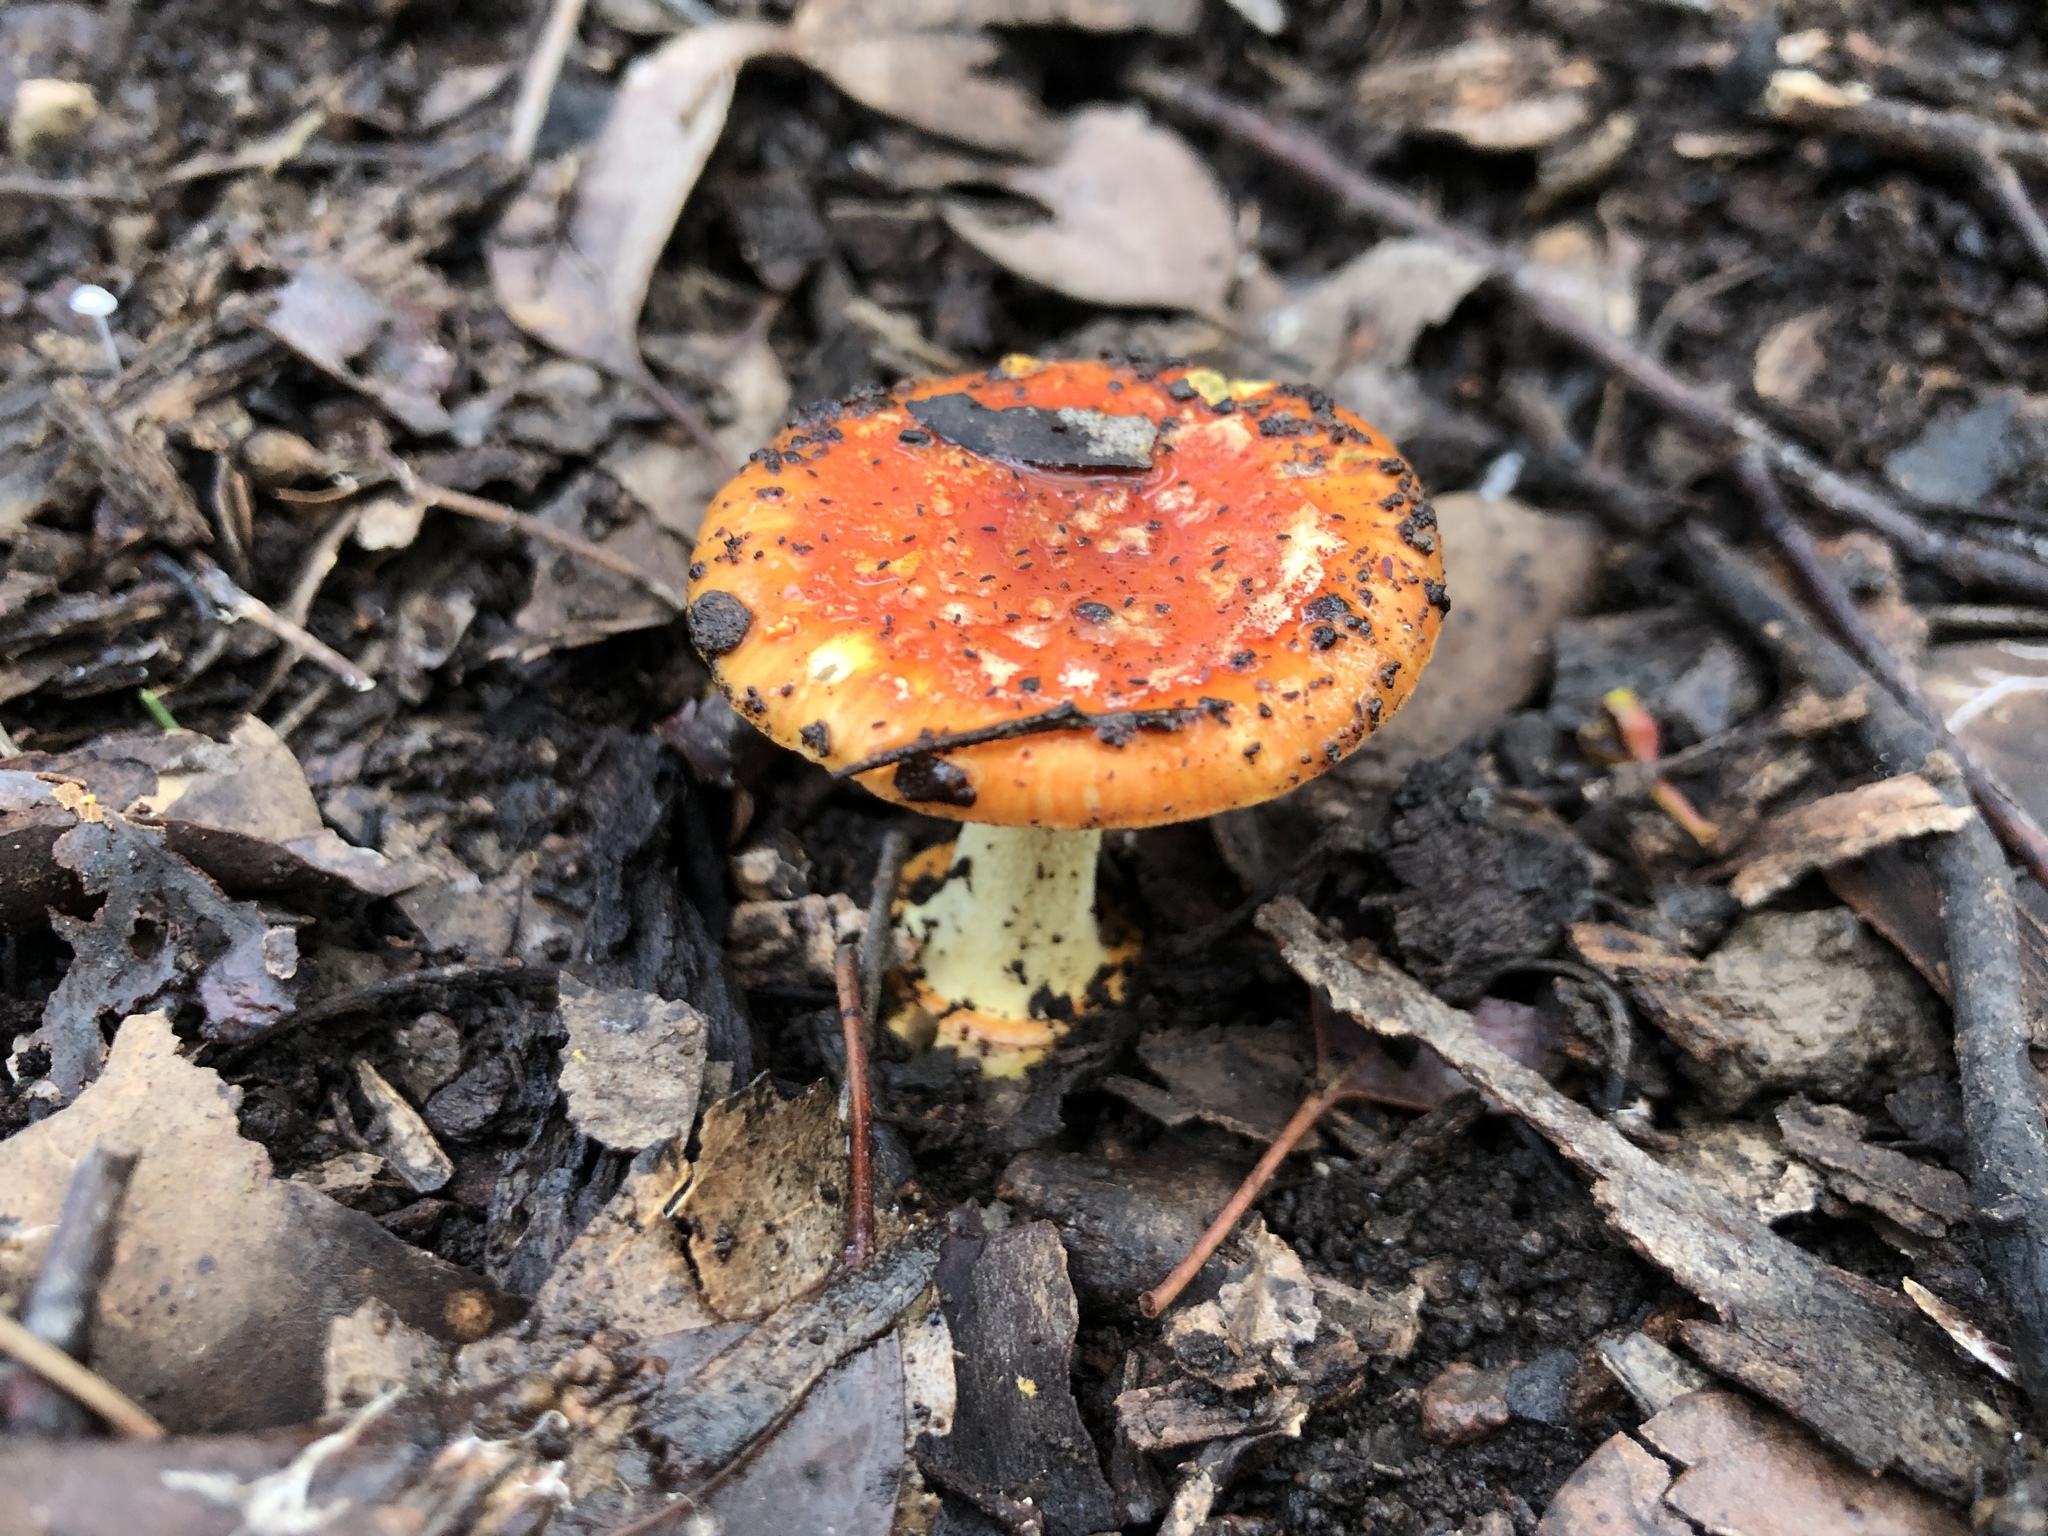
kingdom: Fungi
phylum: Basidiomycota
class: Agaricomycetes
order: Agaricales
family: Amanitaceae
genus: Amanita
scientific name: Amanita xanthocephala
